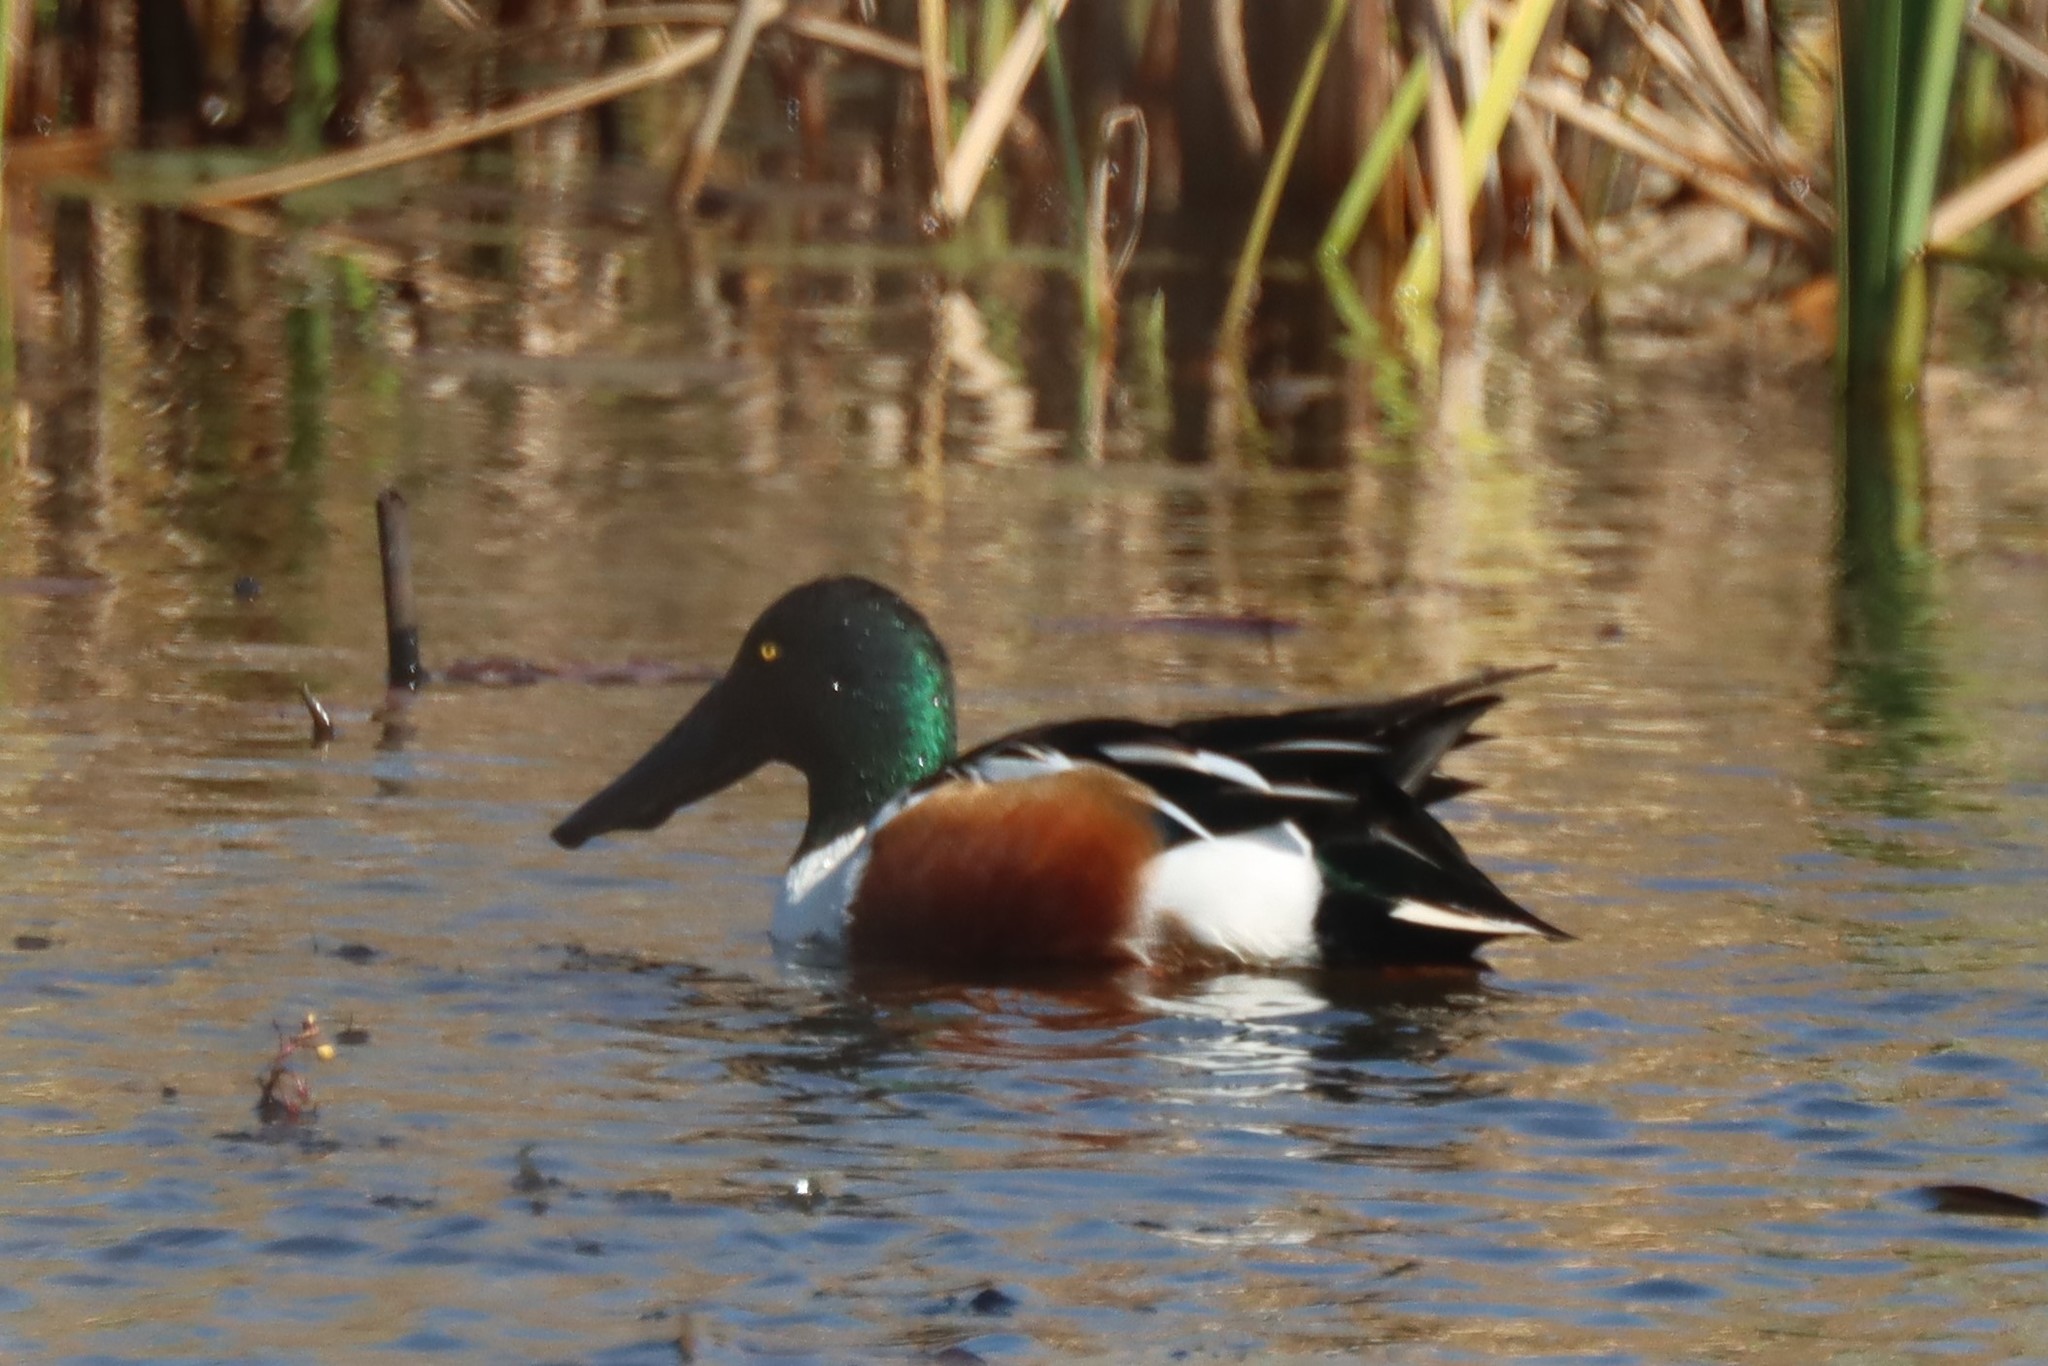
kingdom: Animalia
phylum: Chordata
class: Aves
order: Anseriformes
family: Anatidae
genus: Spatula
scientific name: Spatula clypeata
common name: Northern shoveler
